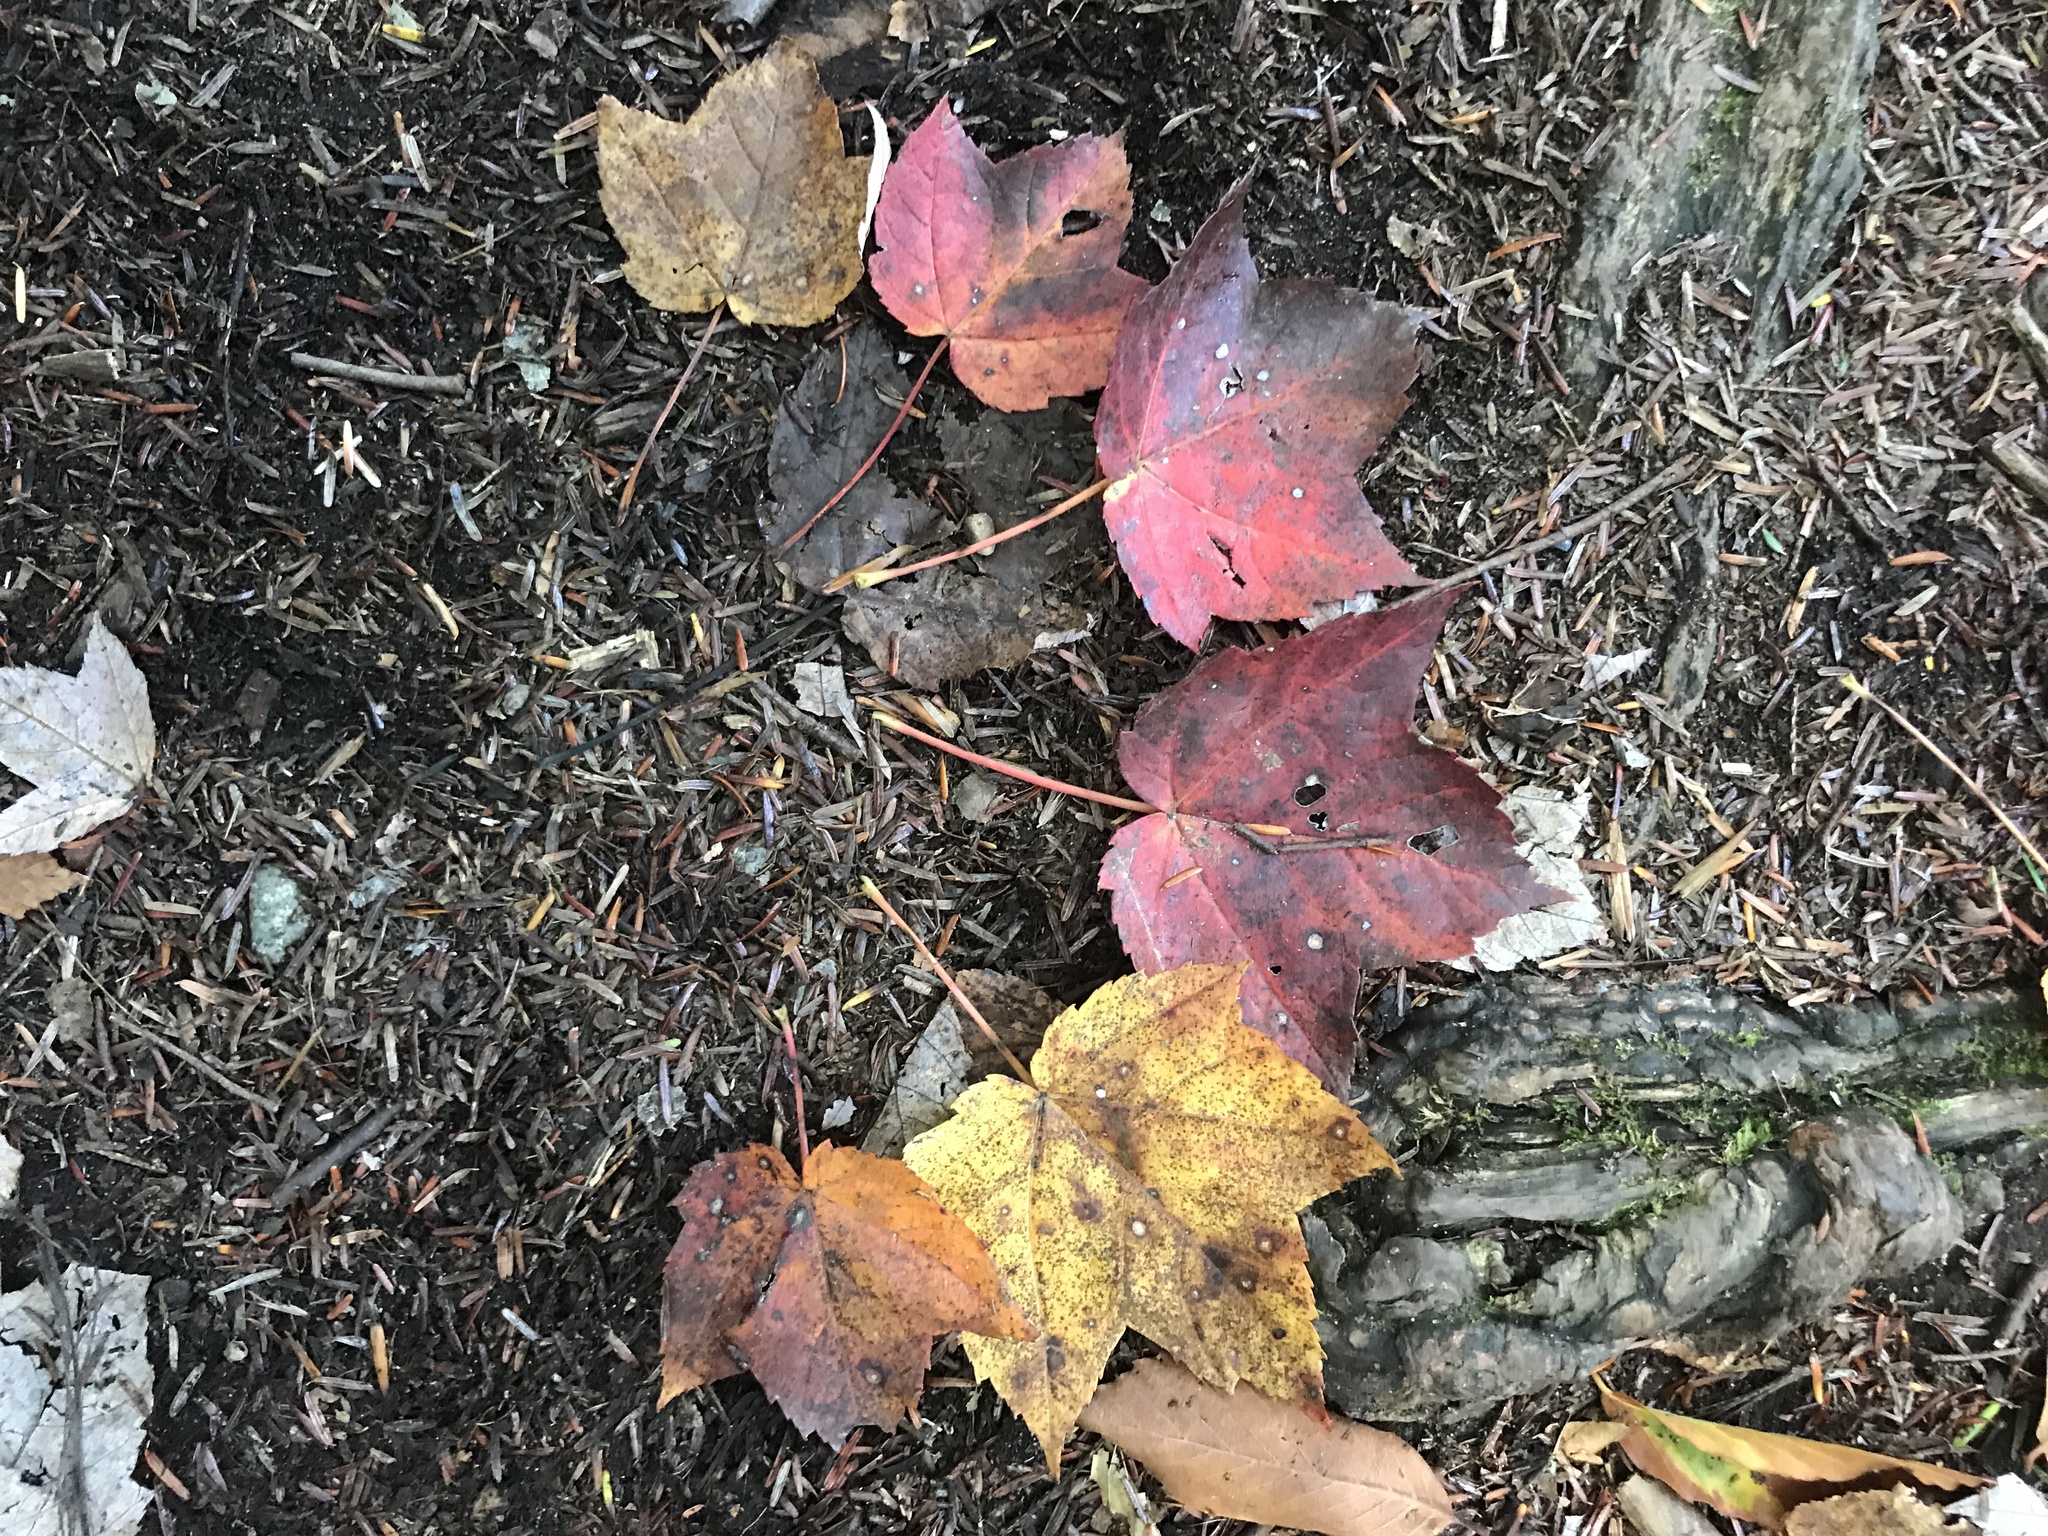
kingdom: Plantae
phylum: Tracheophyta
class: Magnoliopsida
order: Sapindales
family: Sapindaceae
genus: Acer
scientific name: Acer rubrum
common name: Red maple
